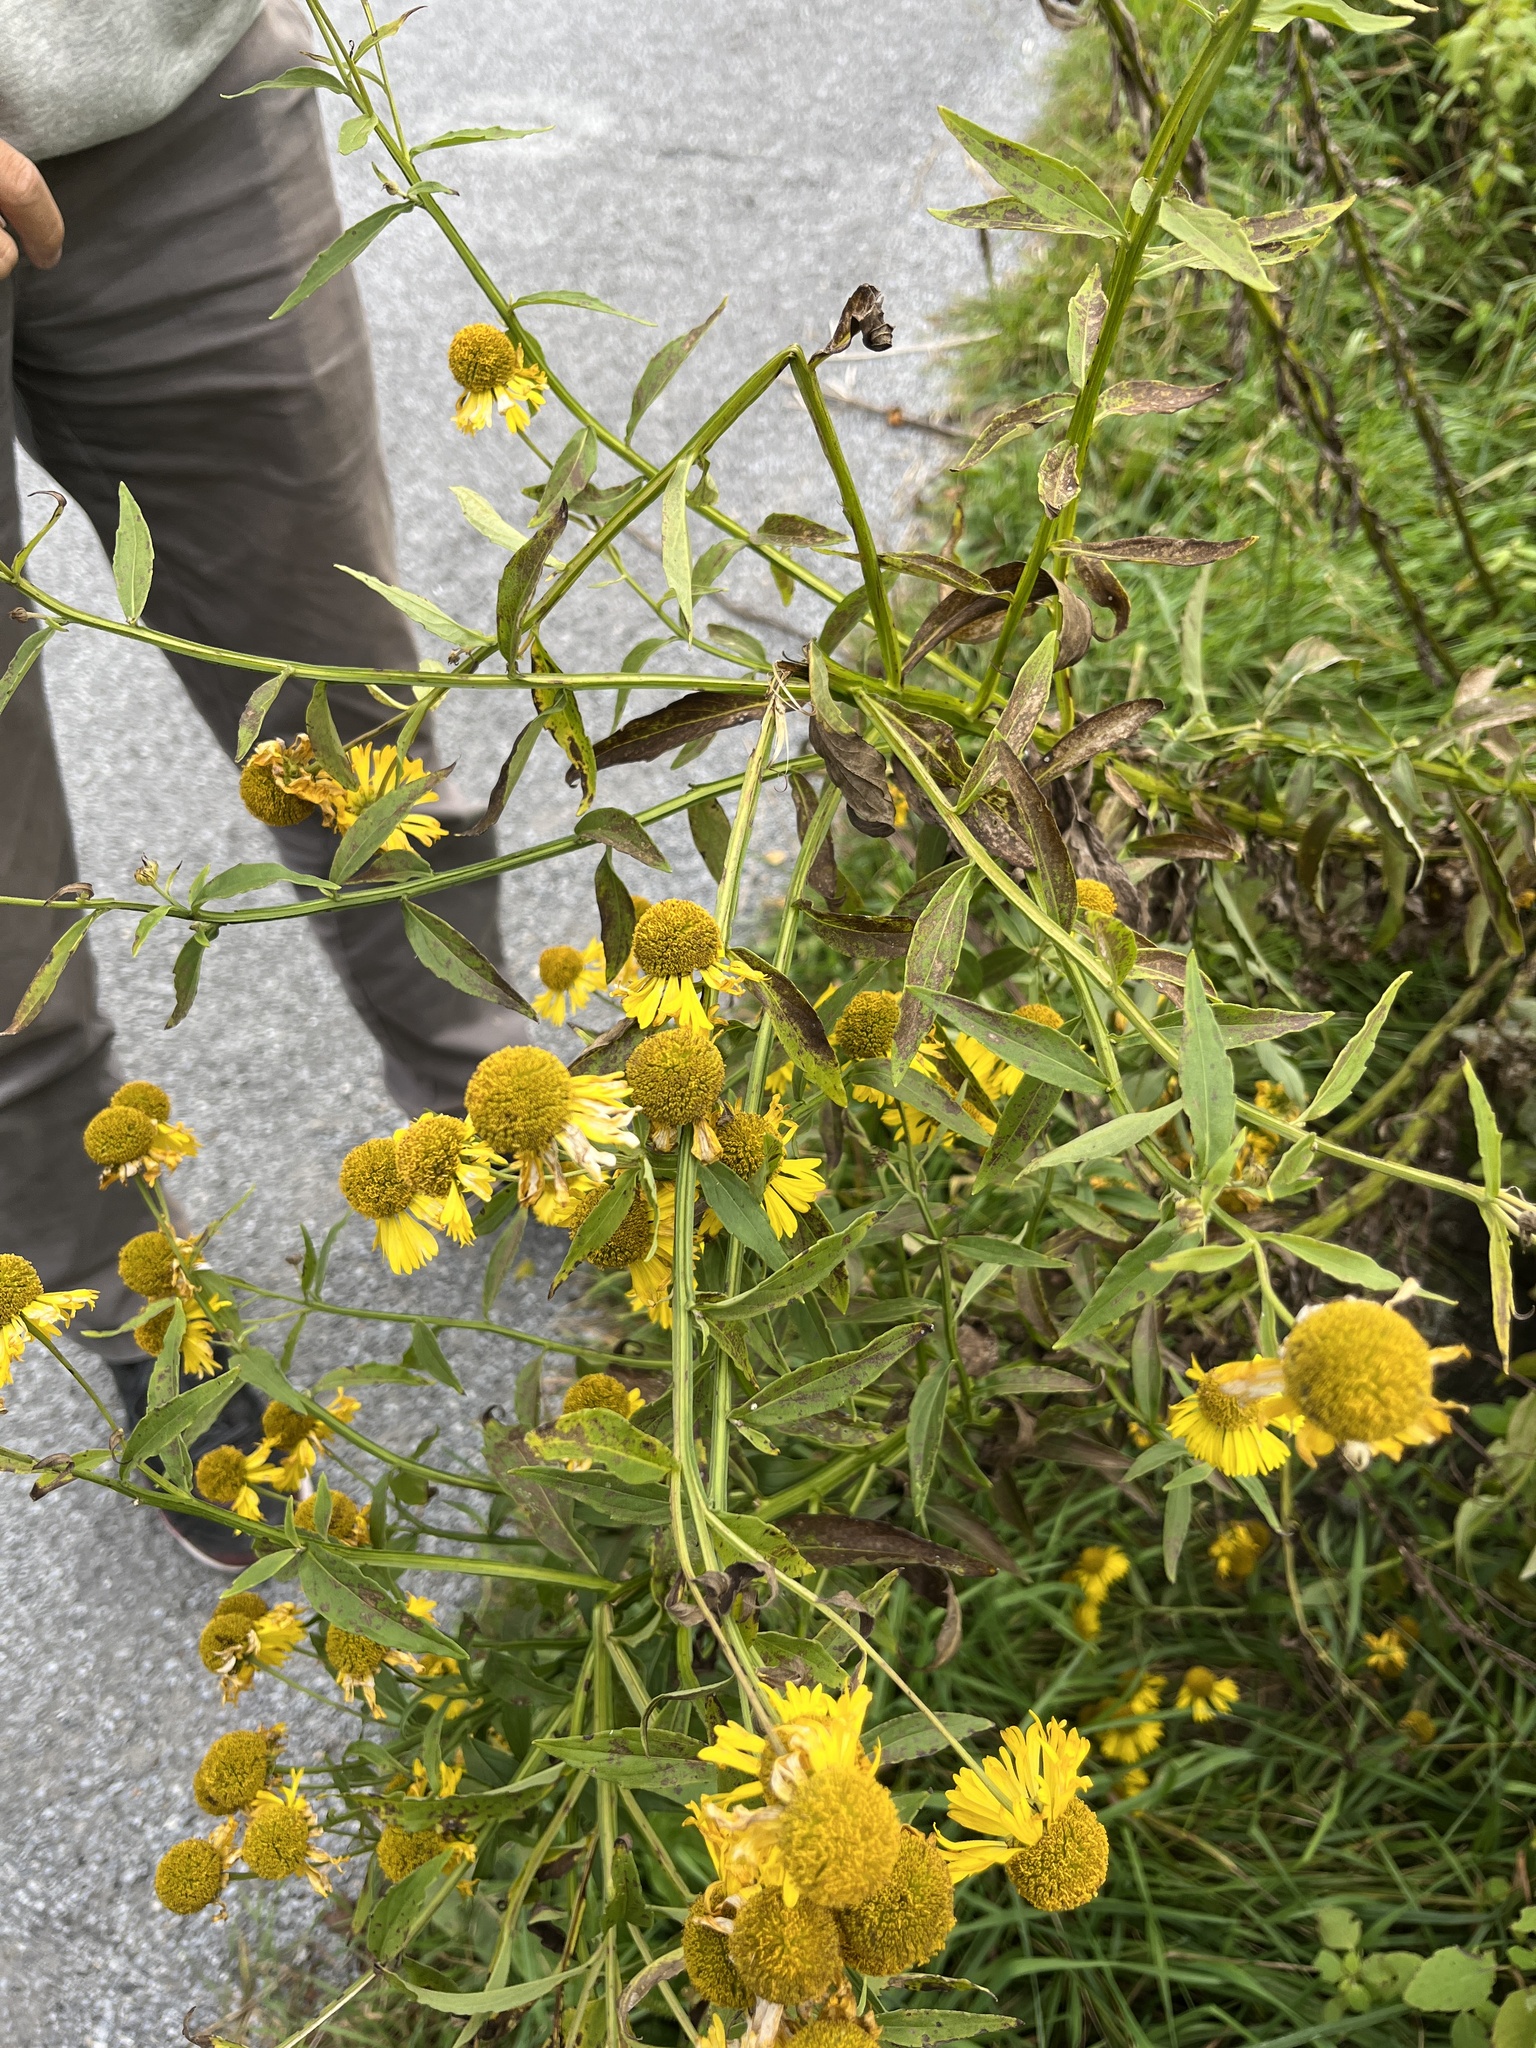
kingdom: Plantae
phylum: Tracheophyta
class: Magnoliopsida
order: Asterales
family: Asteraceae
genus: Helenium
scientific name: Helenium autumnale
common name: Sneezeweed
